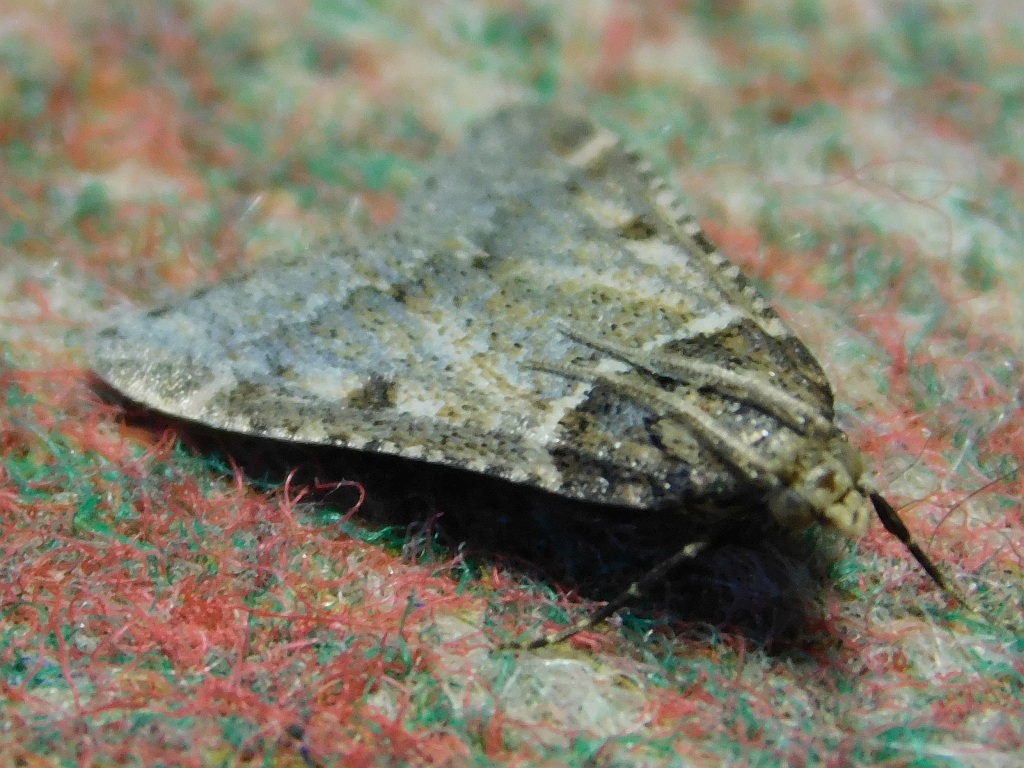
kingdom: Animalia
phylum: Arthropoda
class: Insecta
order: Lepidoptera
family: Pyralidae
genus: Philotis
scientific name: Philotis basalis
